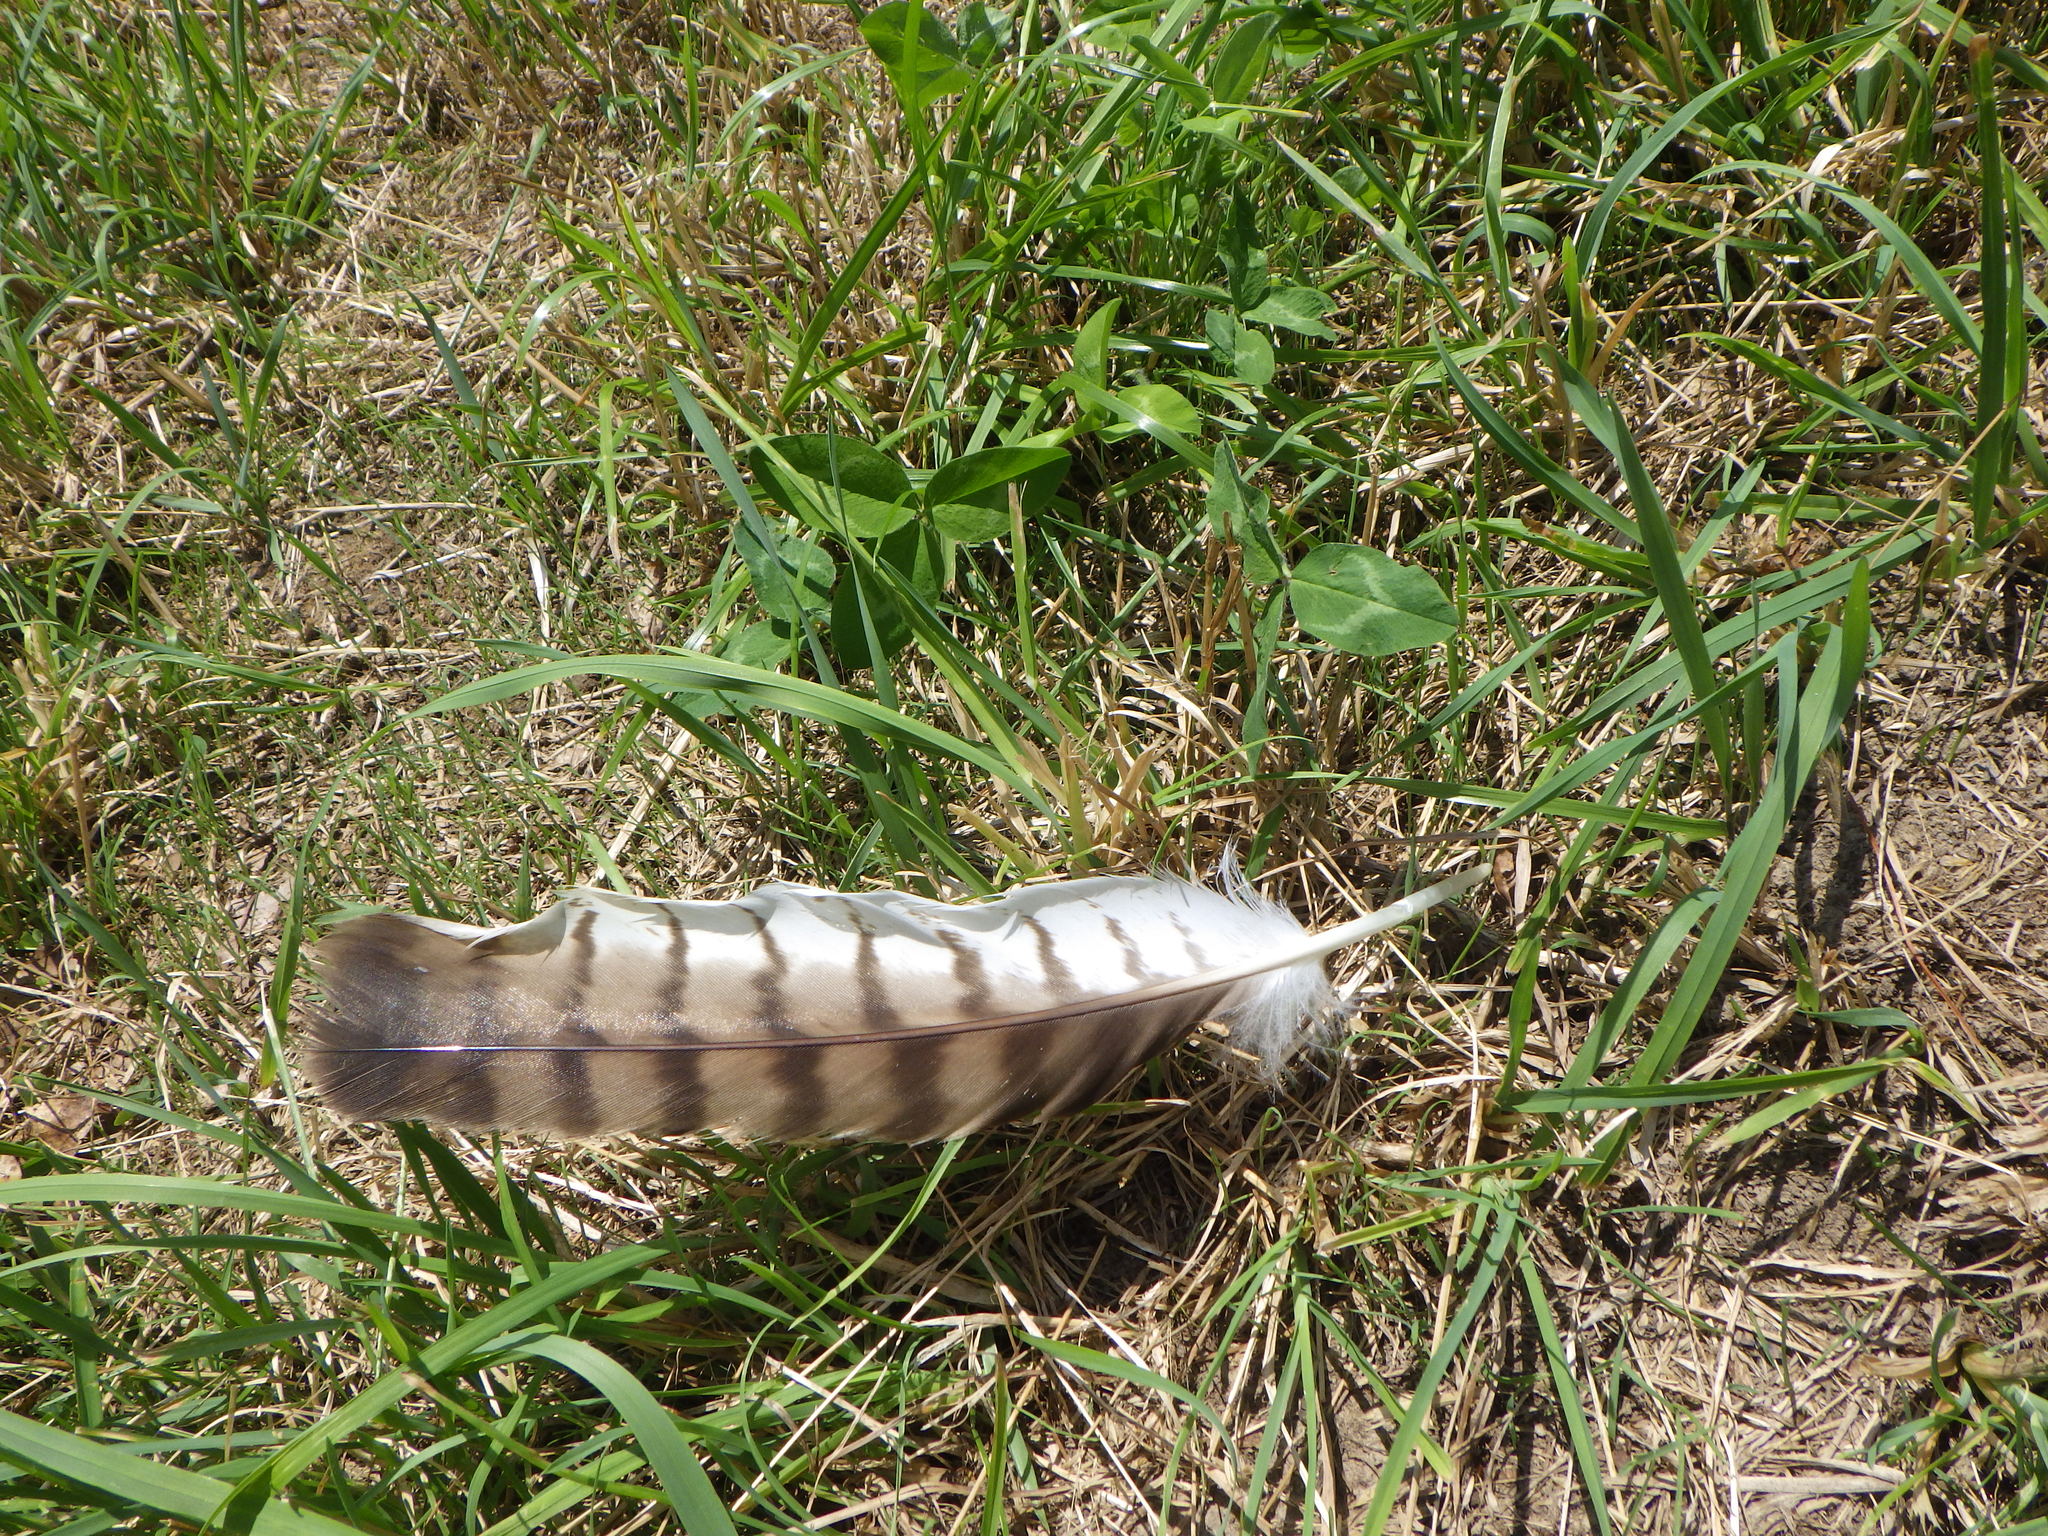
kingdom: Animalia
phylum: Chordata
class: Aves
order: Accipitriformes
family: Accipitridae
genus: Buteo
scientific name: Buteo jamaicensis
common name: Red-tailed hawk
